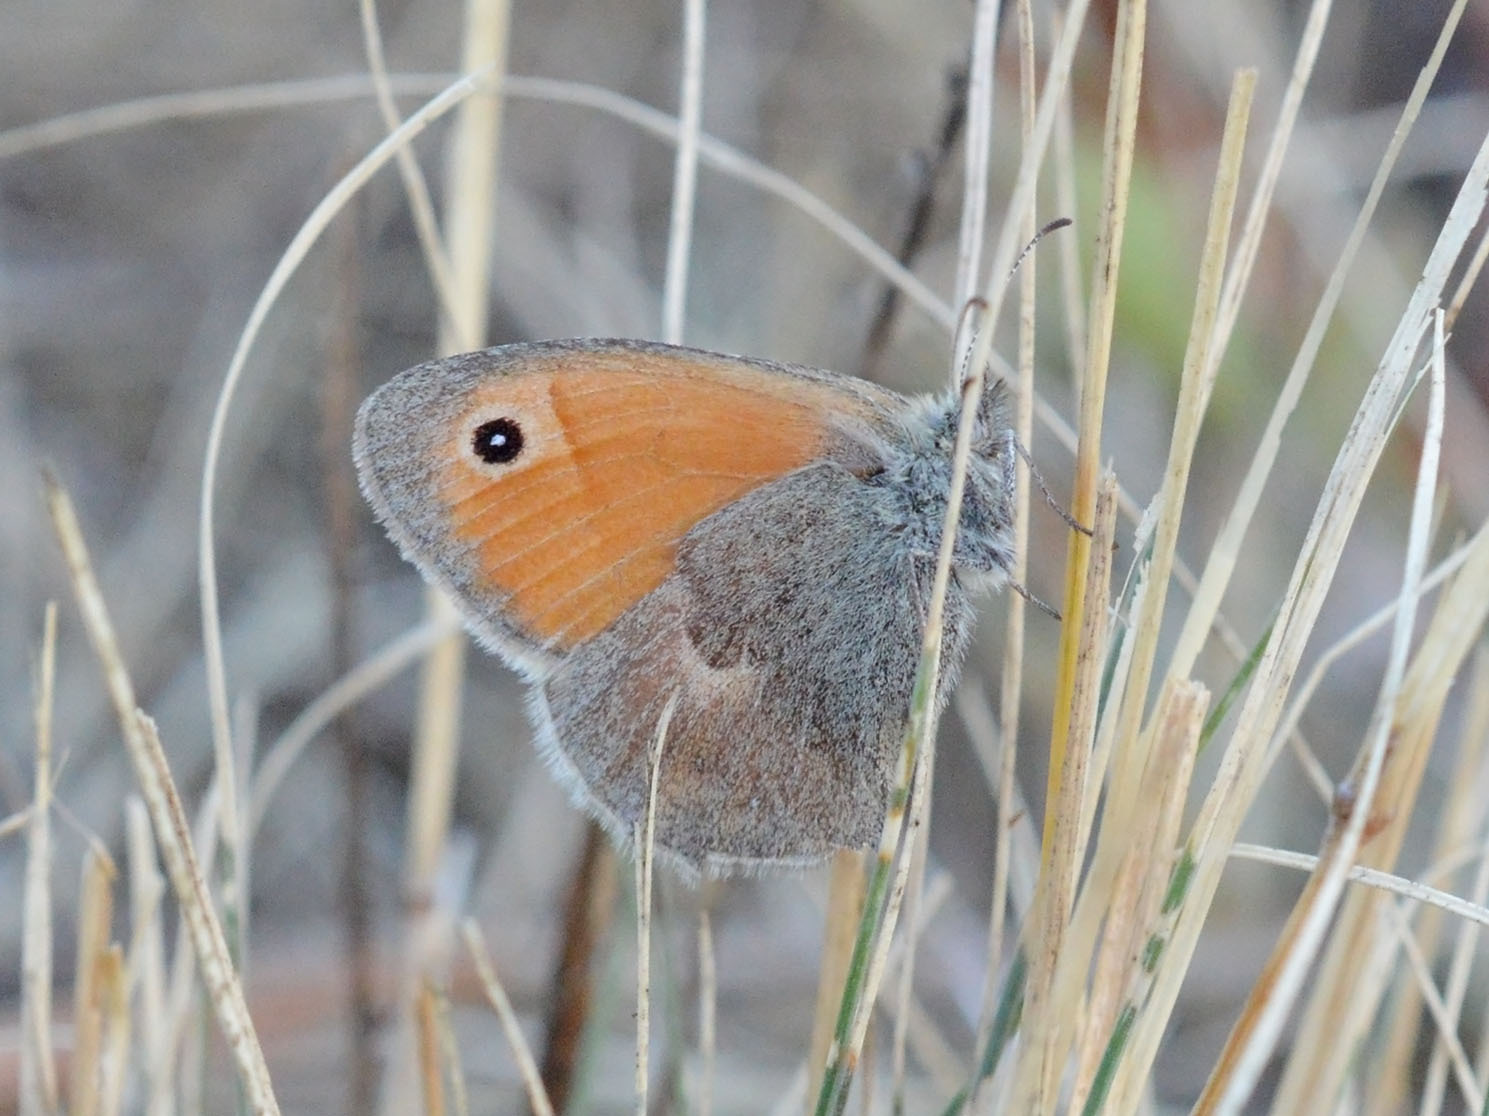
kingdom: Animalia
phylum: Arthropoda
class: Insecta
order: Lepidoptera
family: Nymphalidae
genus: Coenonympha
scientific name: Coenonympha pamphilus
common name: Small heath
